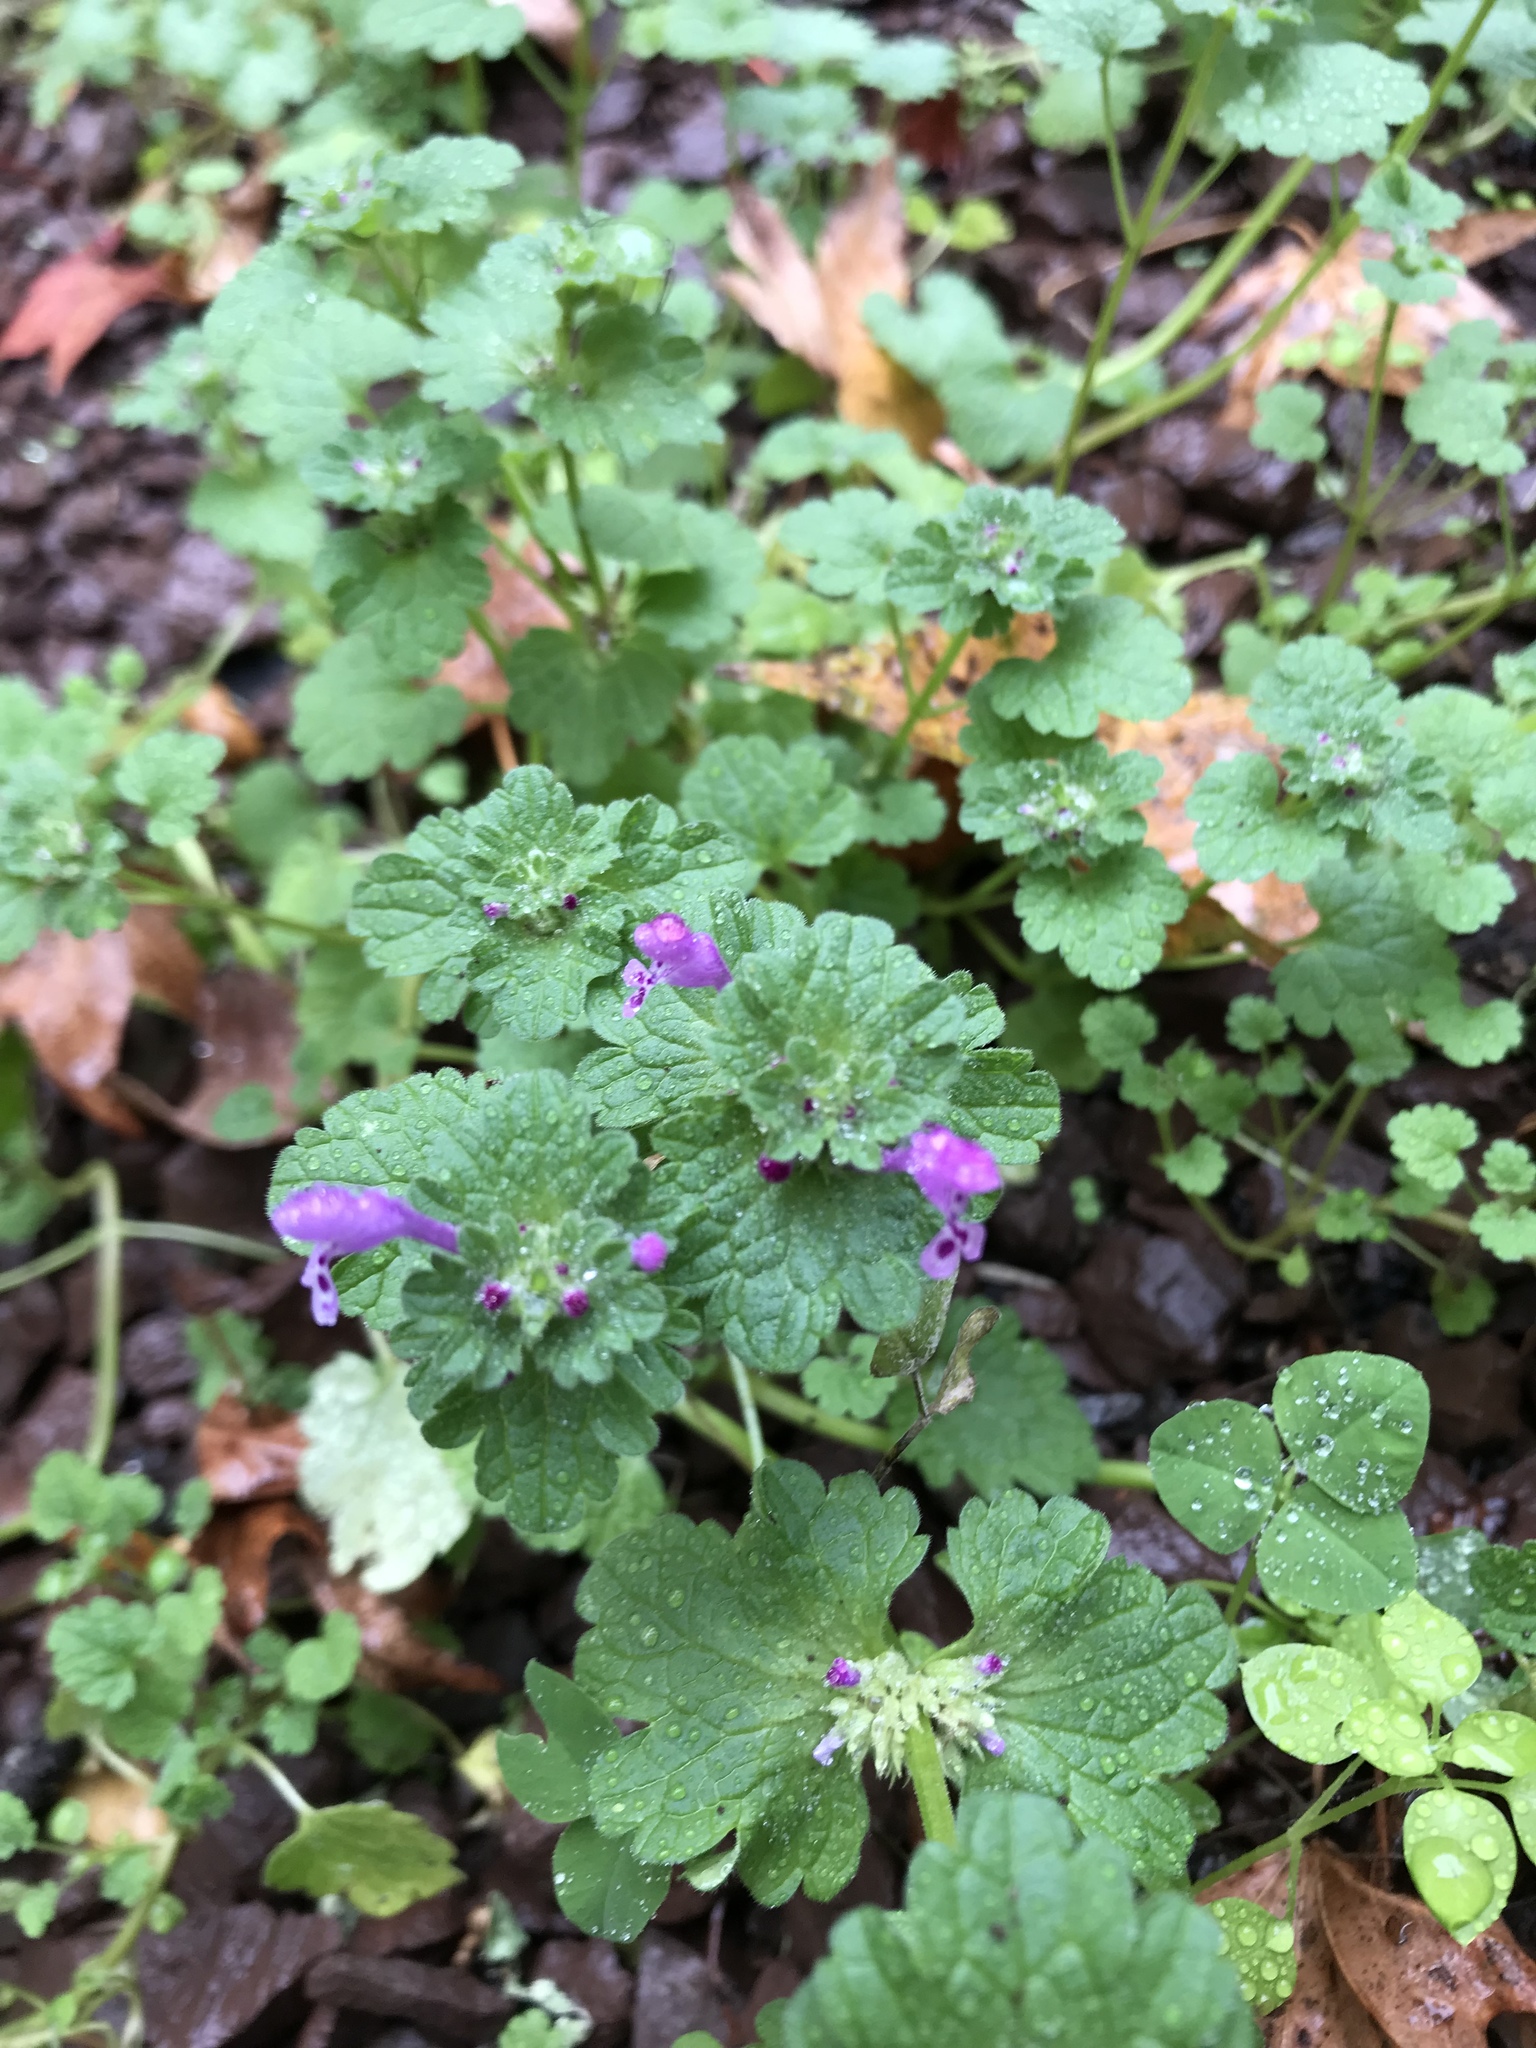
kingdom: Plantae
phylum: Tracheophyta
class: Magnoliopsida
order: Lamiales
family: Lamiaceae
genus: Lamium
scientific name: Lamium amplexicaule
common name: Henbit dead-nettle
